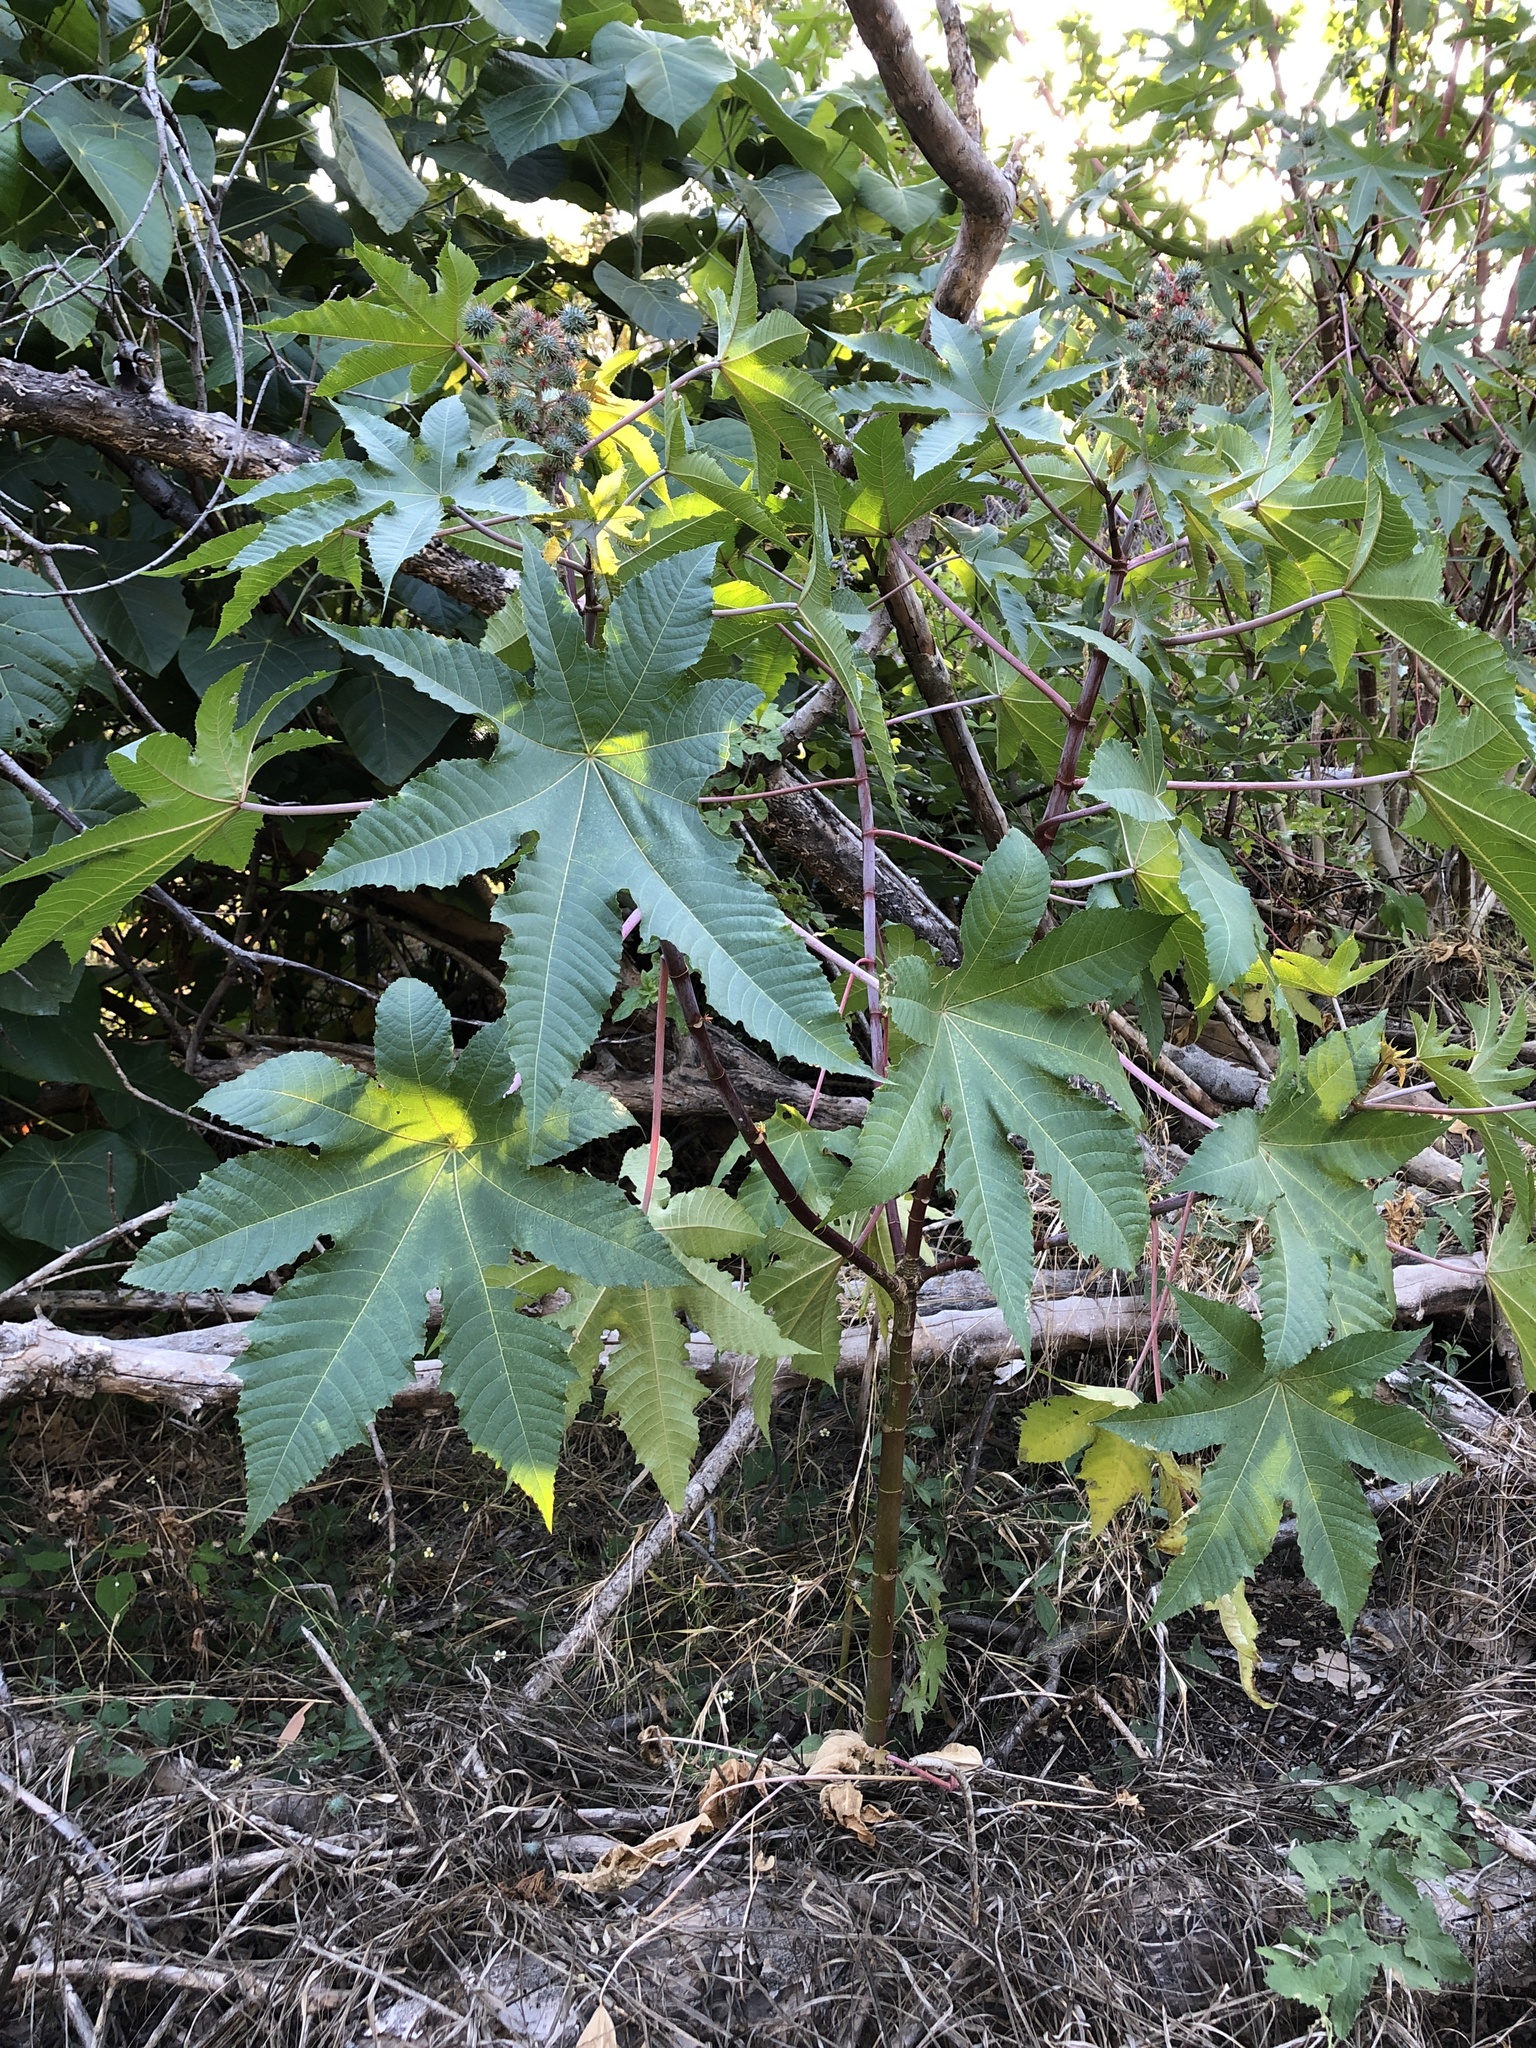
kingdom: Plantae
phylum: Tracheophyta
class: Magnoliopsida
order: Malpighiales
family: Euphorbiaceae
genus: Ricinus
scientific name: Ricinus communis
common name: Castor-oil-plant
